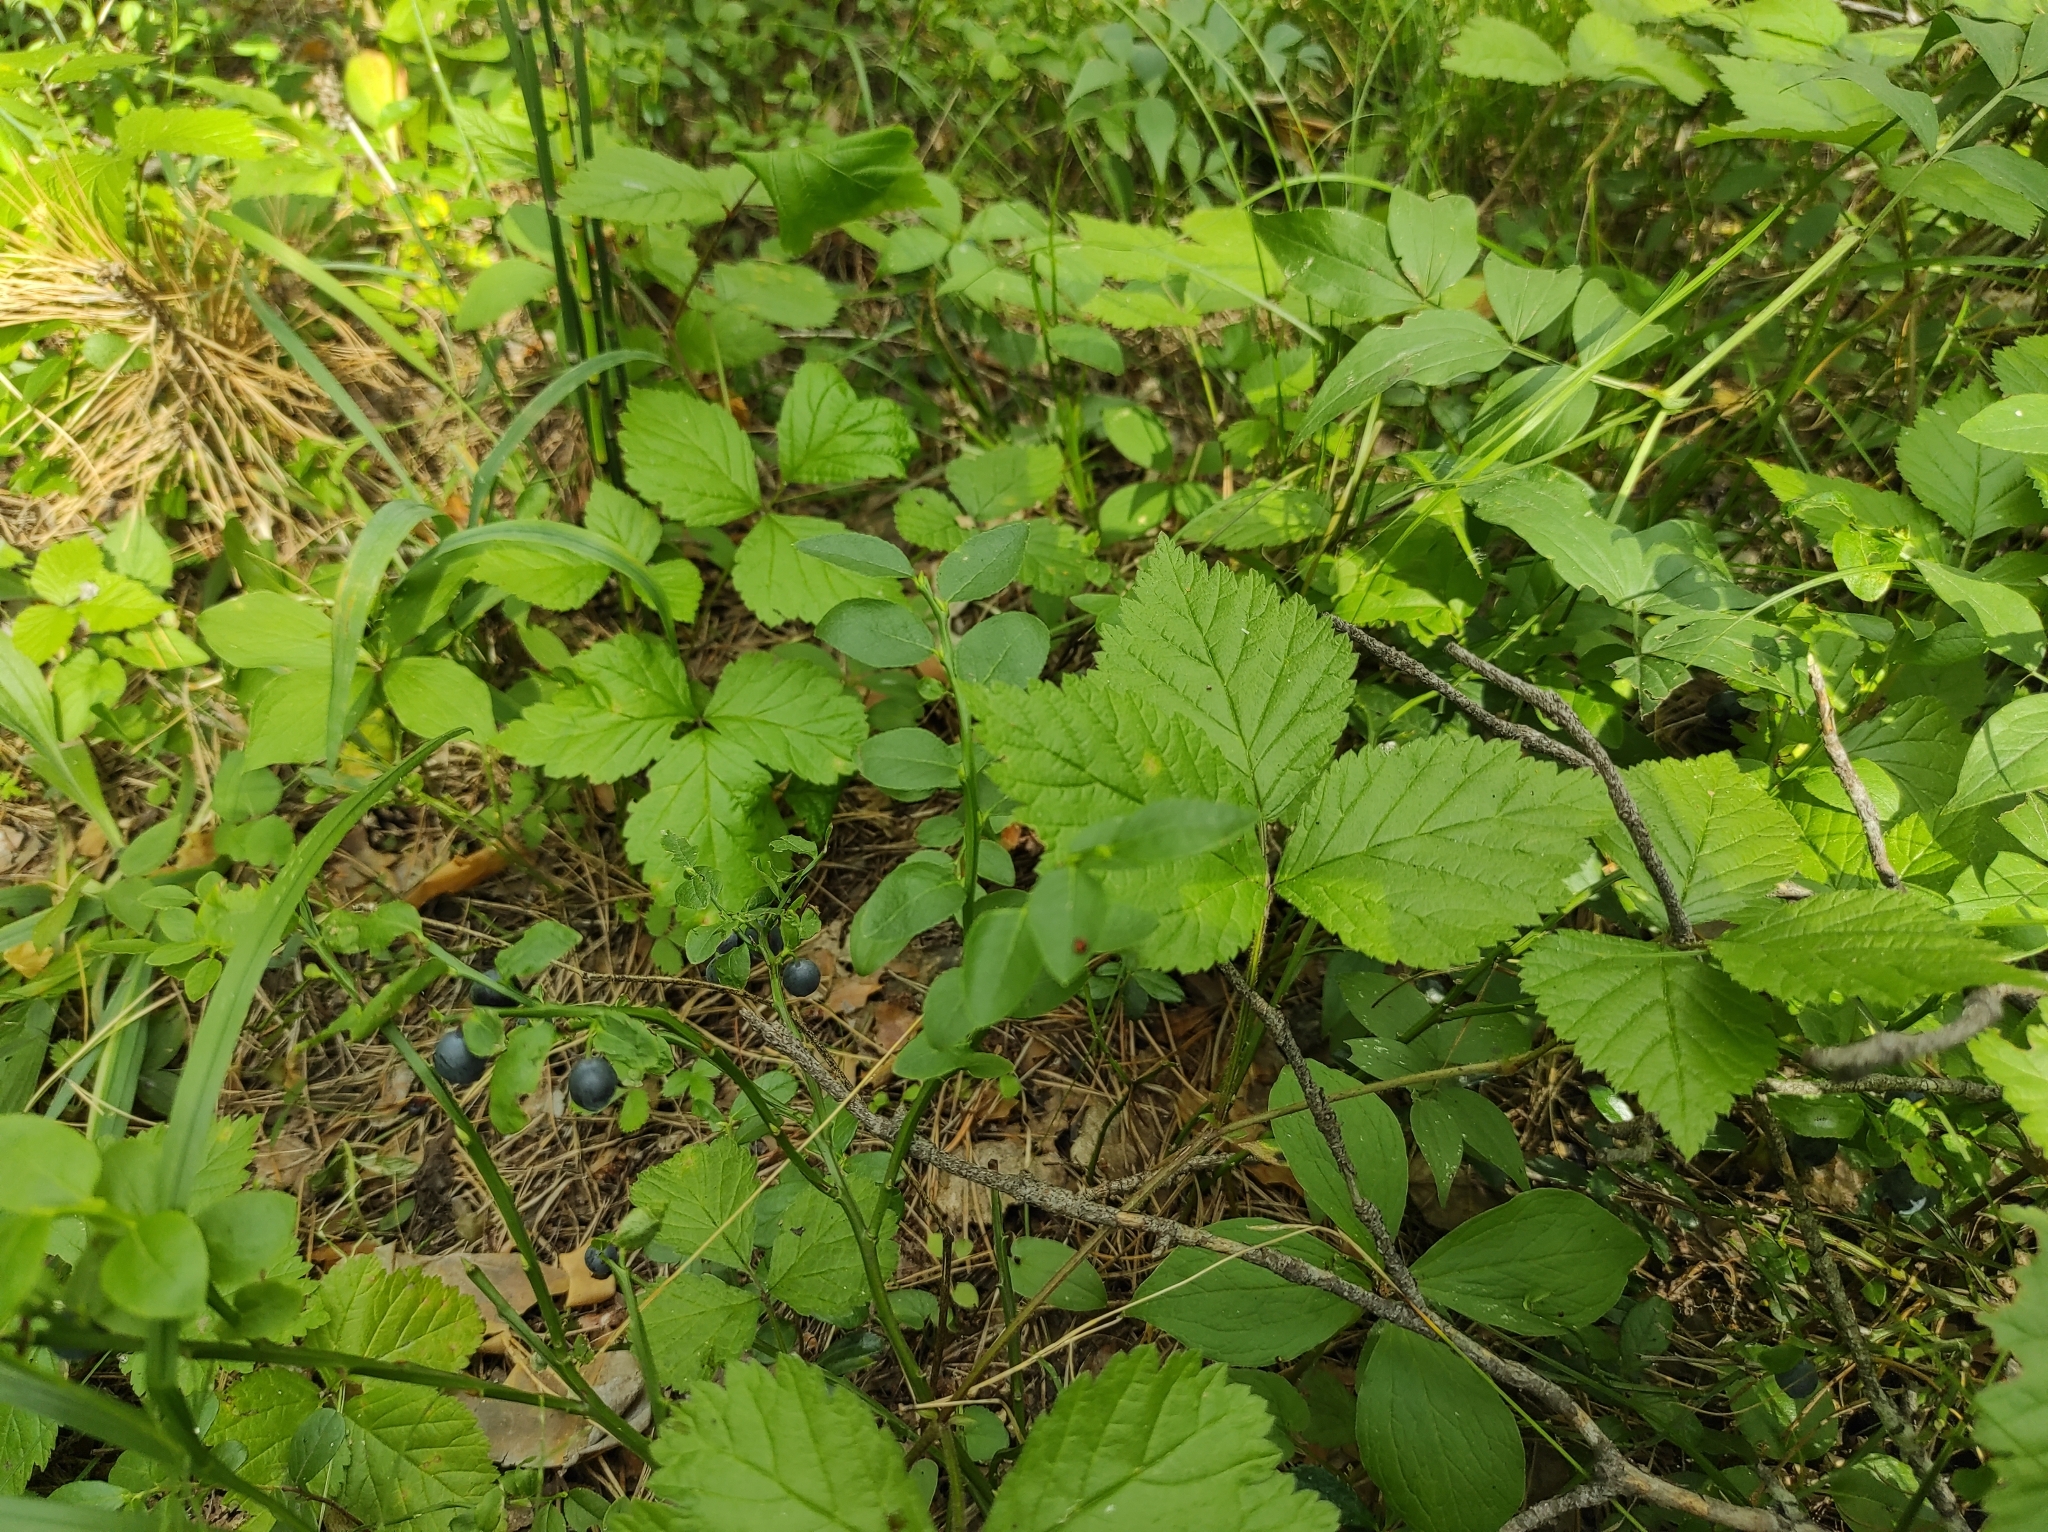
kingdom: Plantae
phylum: Tracheophyta
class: Magnoliopsida
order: Ericales
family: Ericaceae
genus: Vaccinium
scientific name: Vaccinium myrtillus
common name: Bilberry
